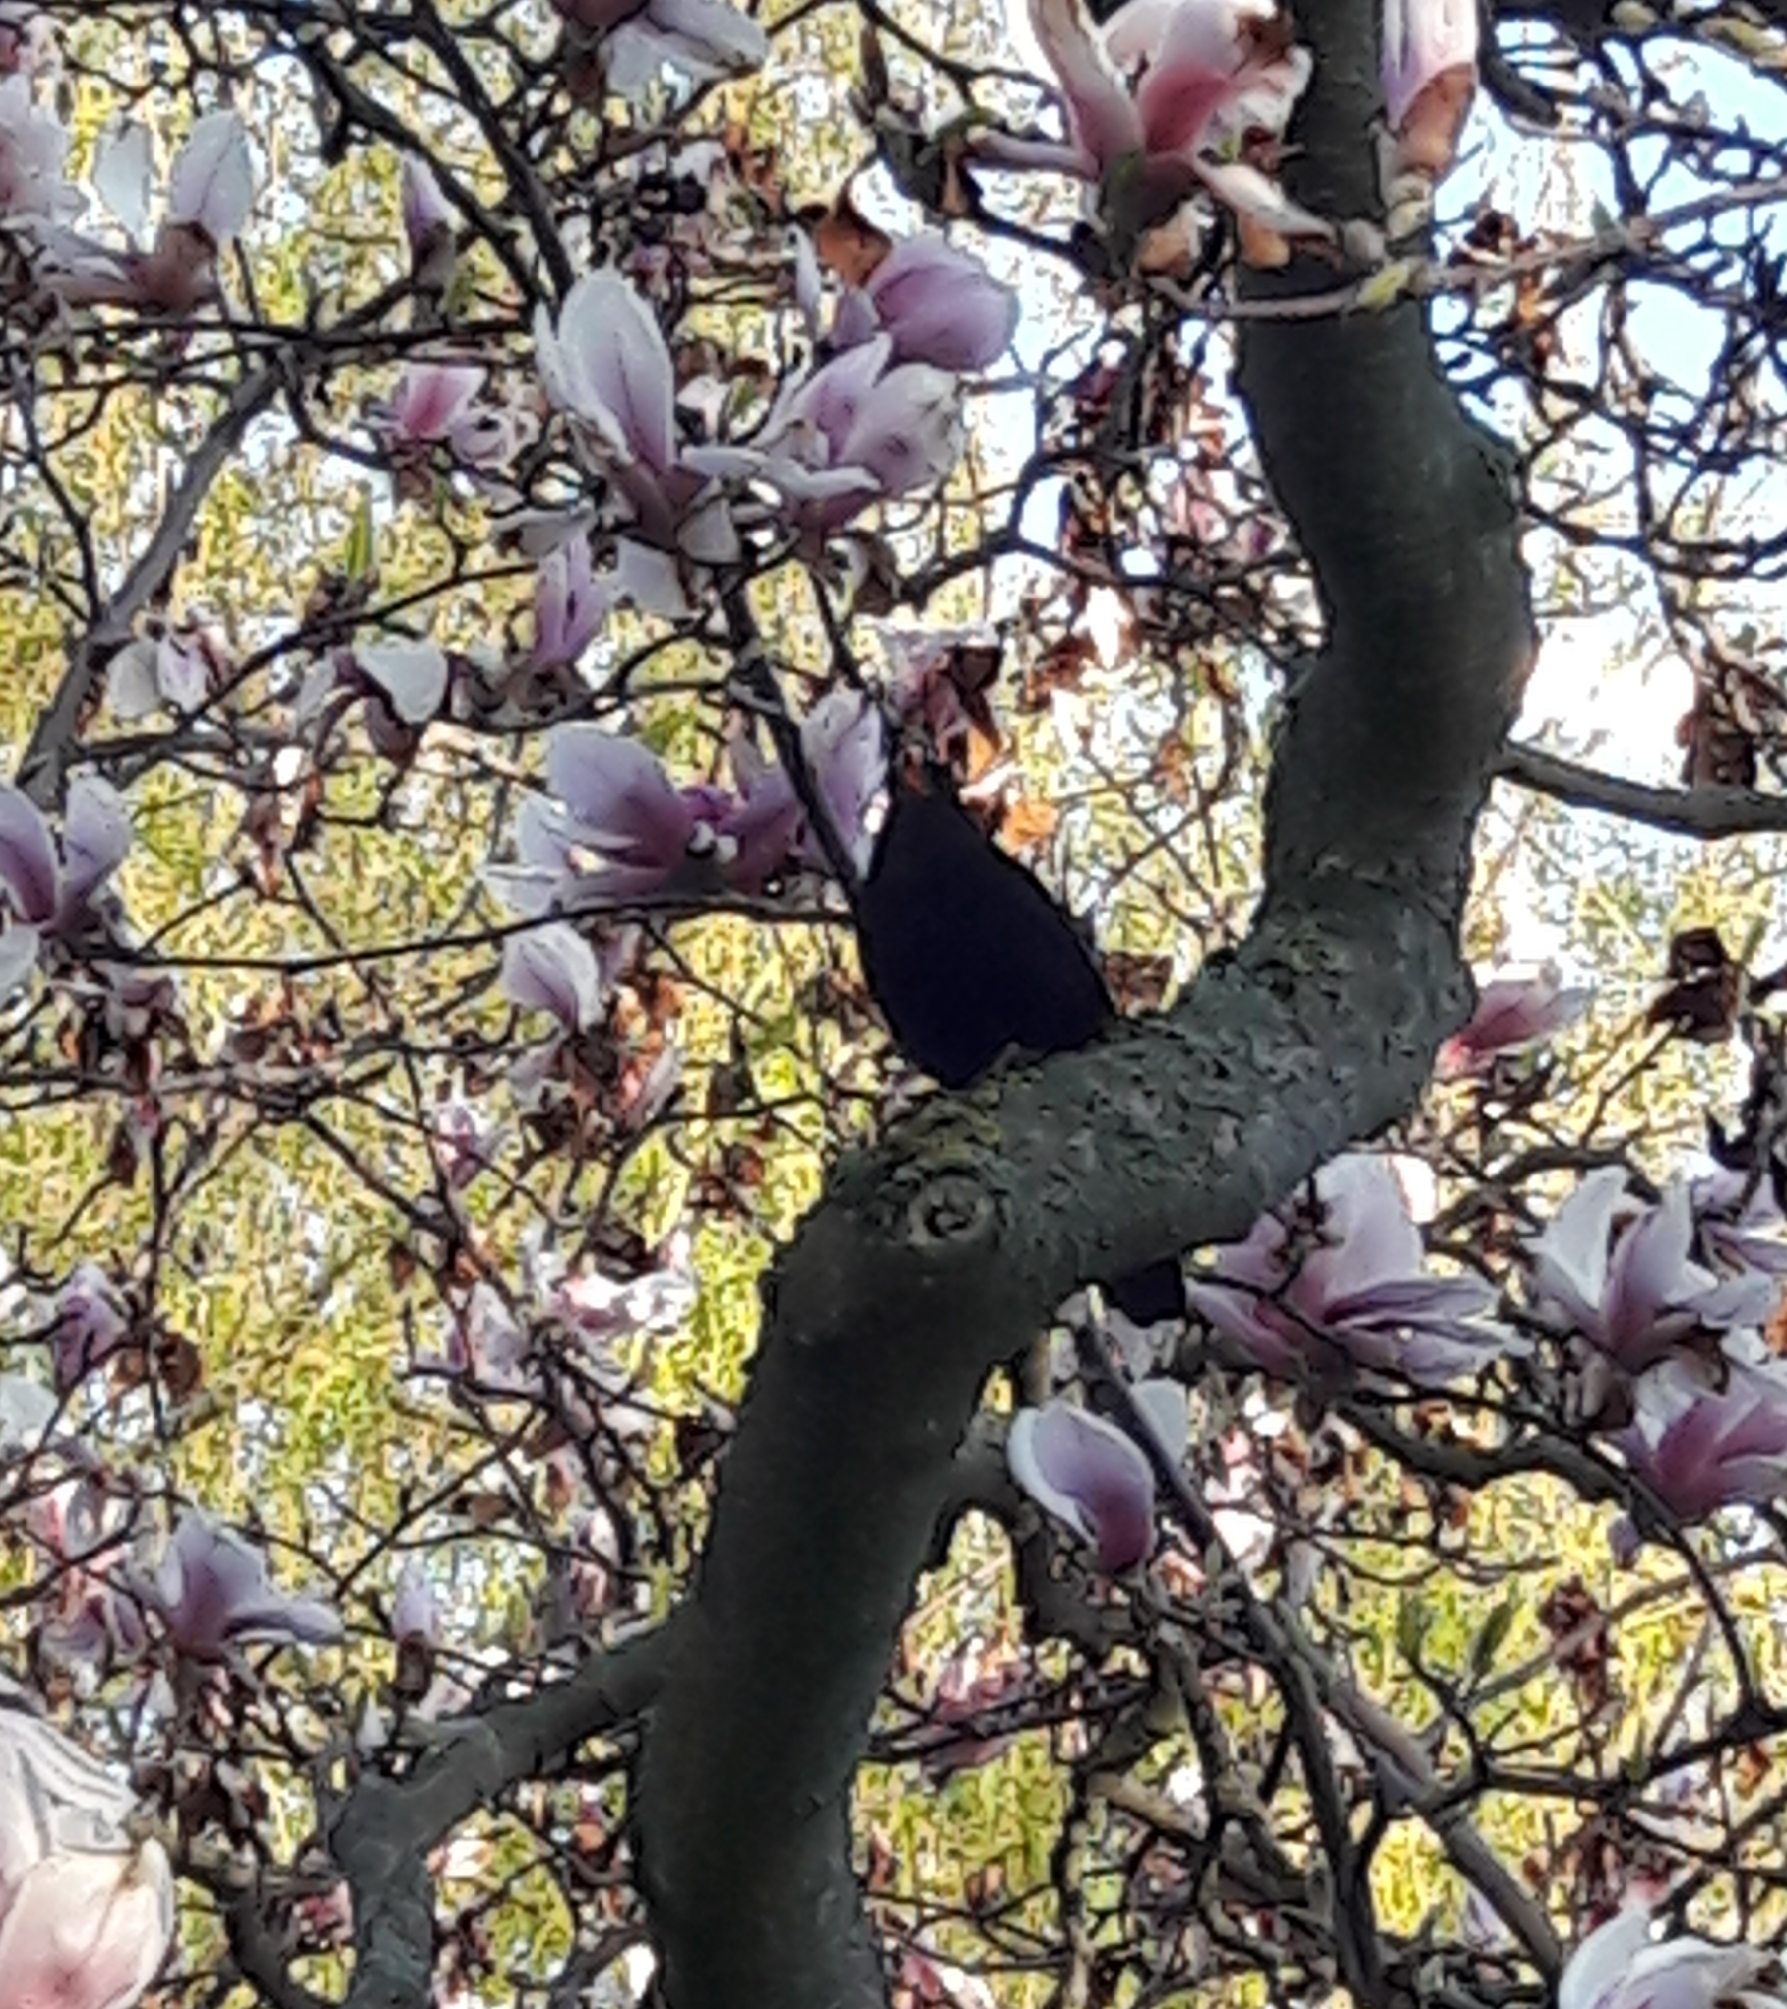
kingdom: Animalia
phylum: Chordata
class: Aves
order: Passeriformes
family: Turdidae
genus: Turdus
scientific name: Turdus merula
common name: Common blackbird
